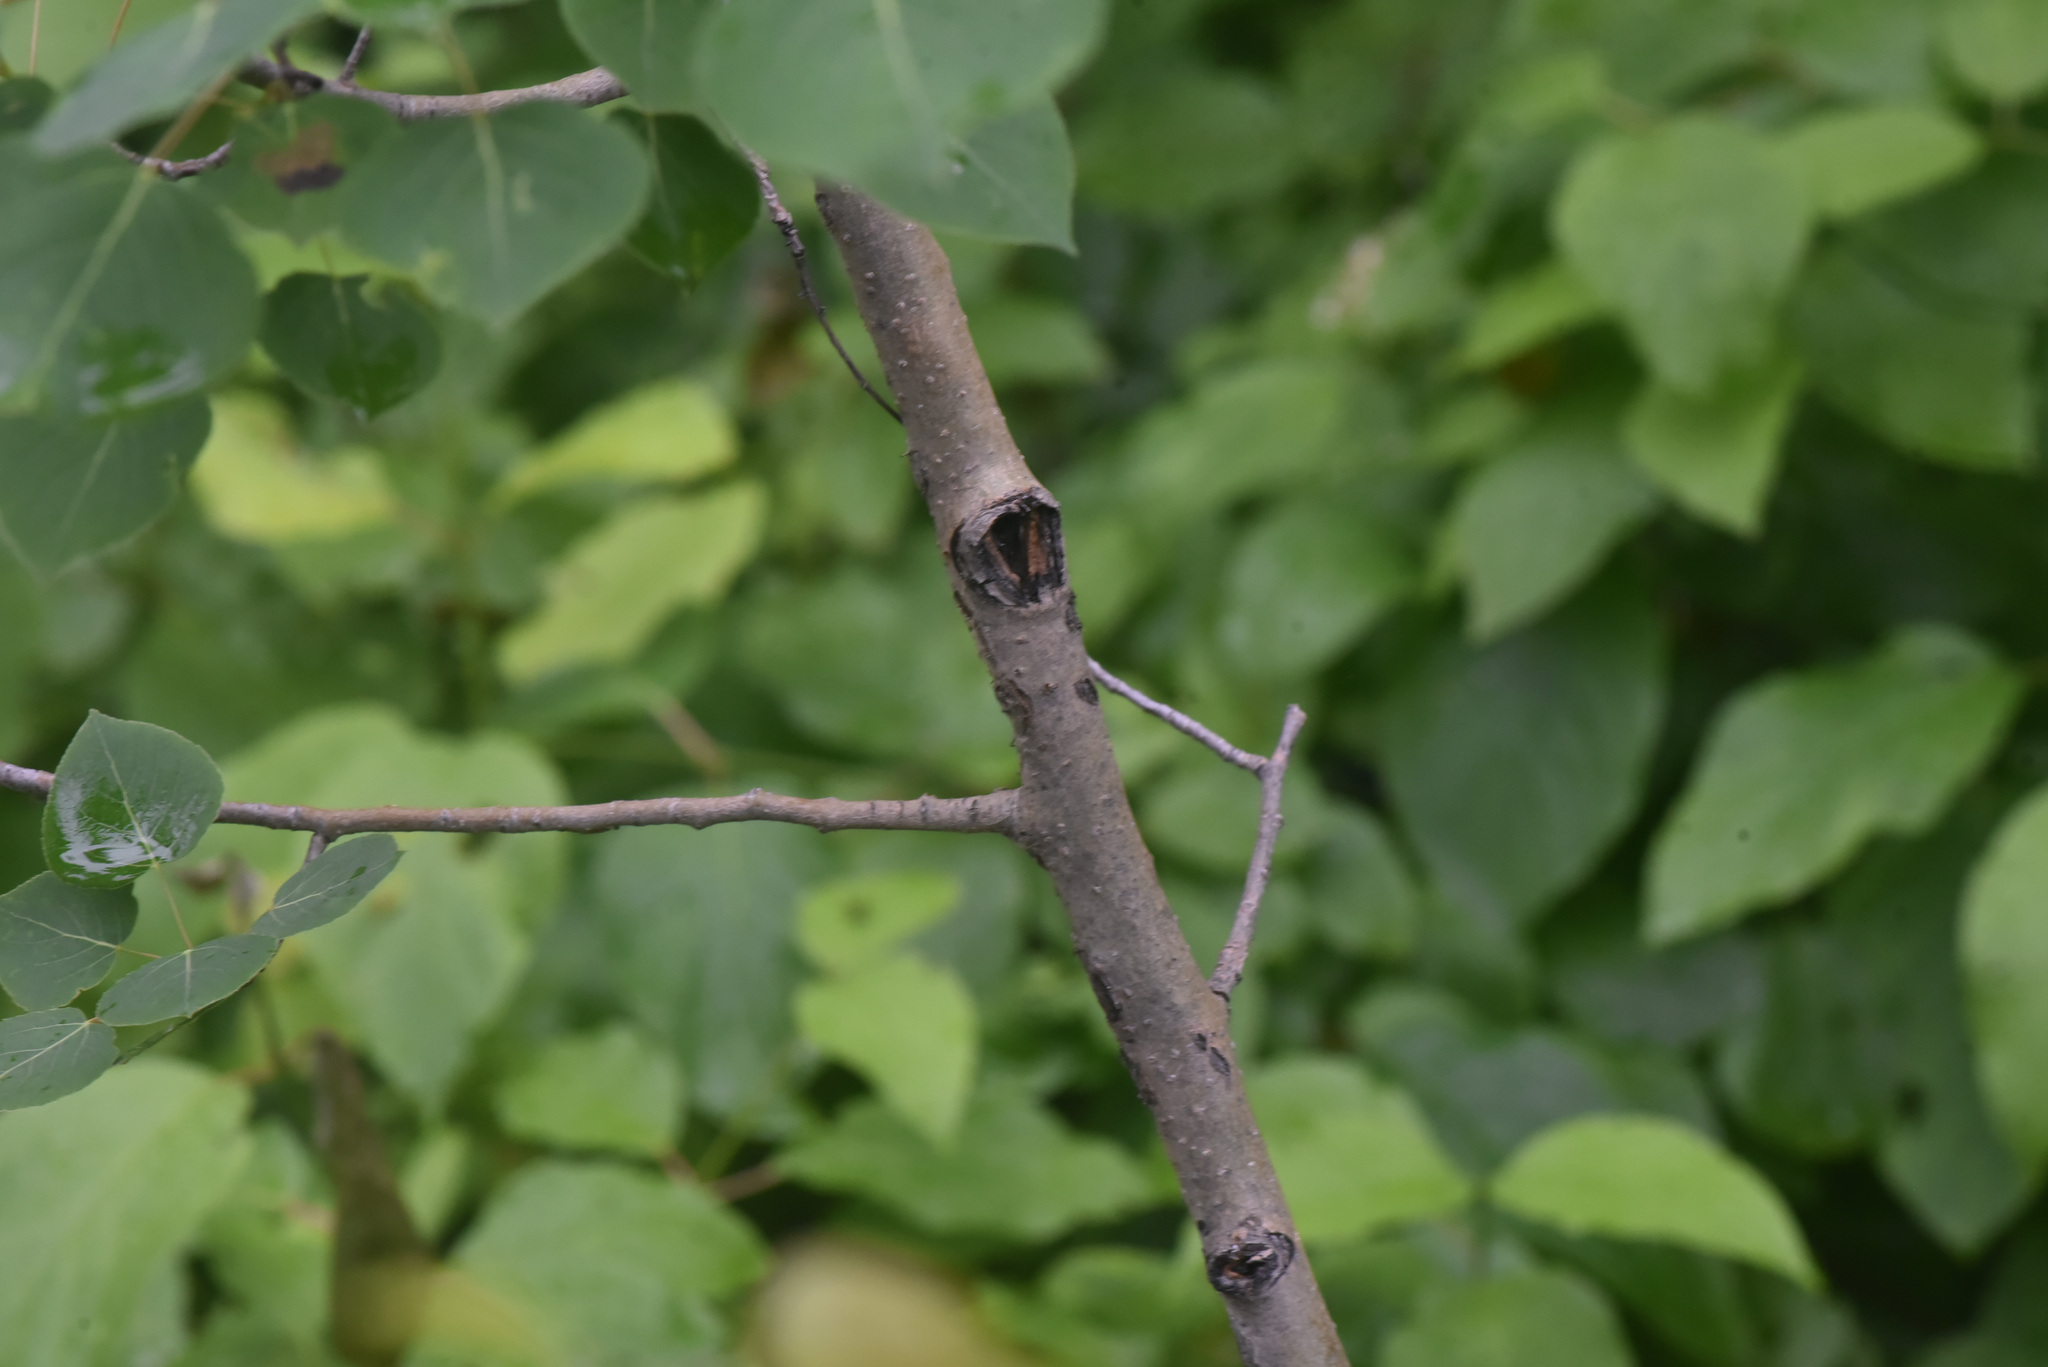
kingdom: Plantae
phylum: Tracheophyta
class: Magnoliopsida
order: Malpighiales
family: Salicaceae
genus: Populus
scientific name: Populus tremuloides
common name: Quaking aspen
